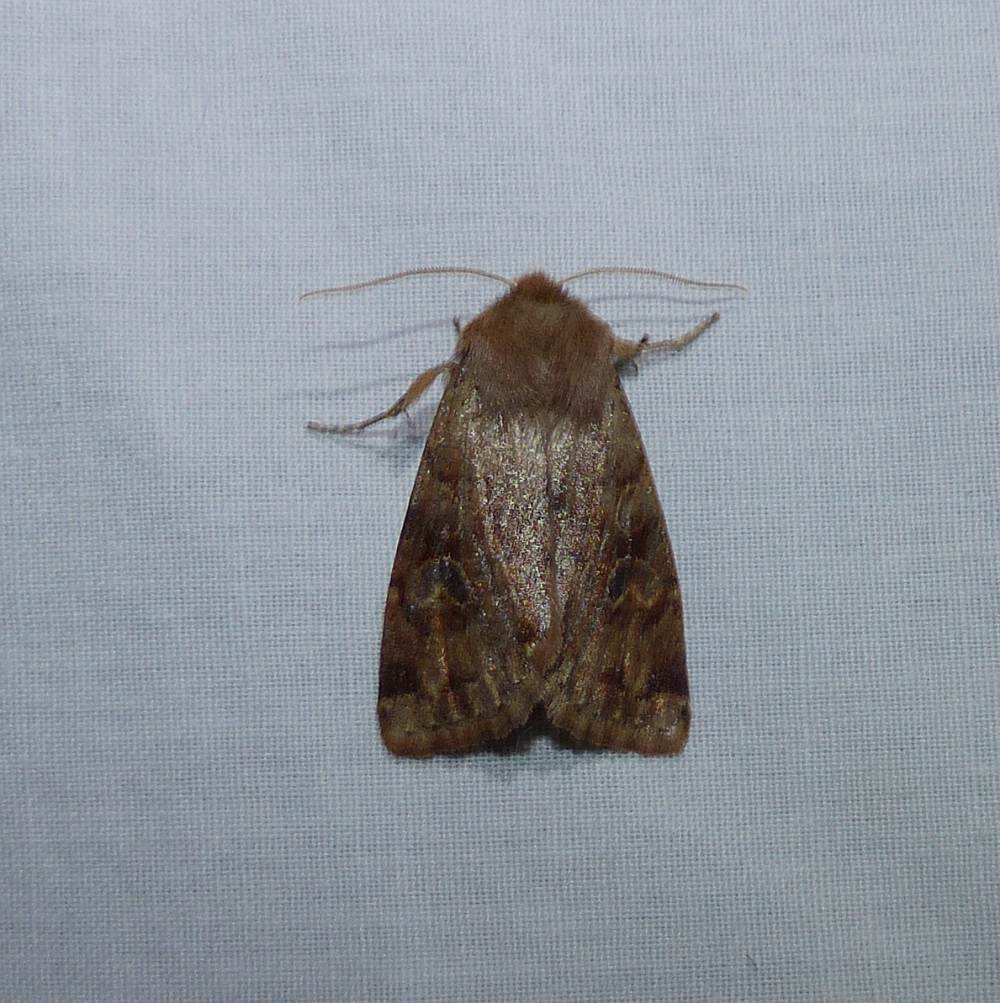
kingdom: Animalia
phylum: Arthropoda
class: Insecta
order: Lepidoptera
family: Noctuidae
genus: Orthosia
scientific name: Orthosia rubescens
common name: Ruby quaker
